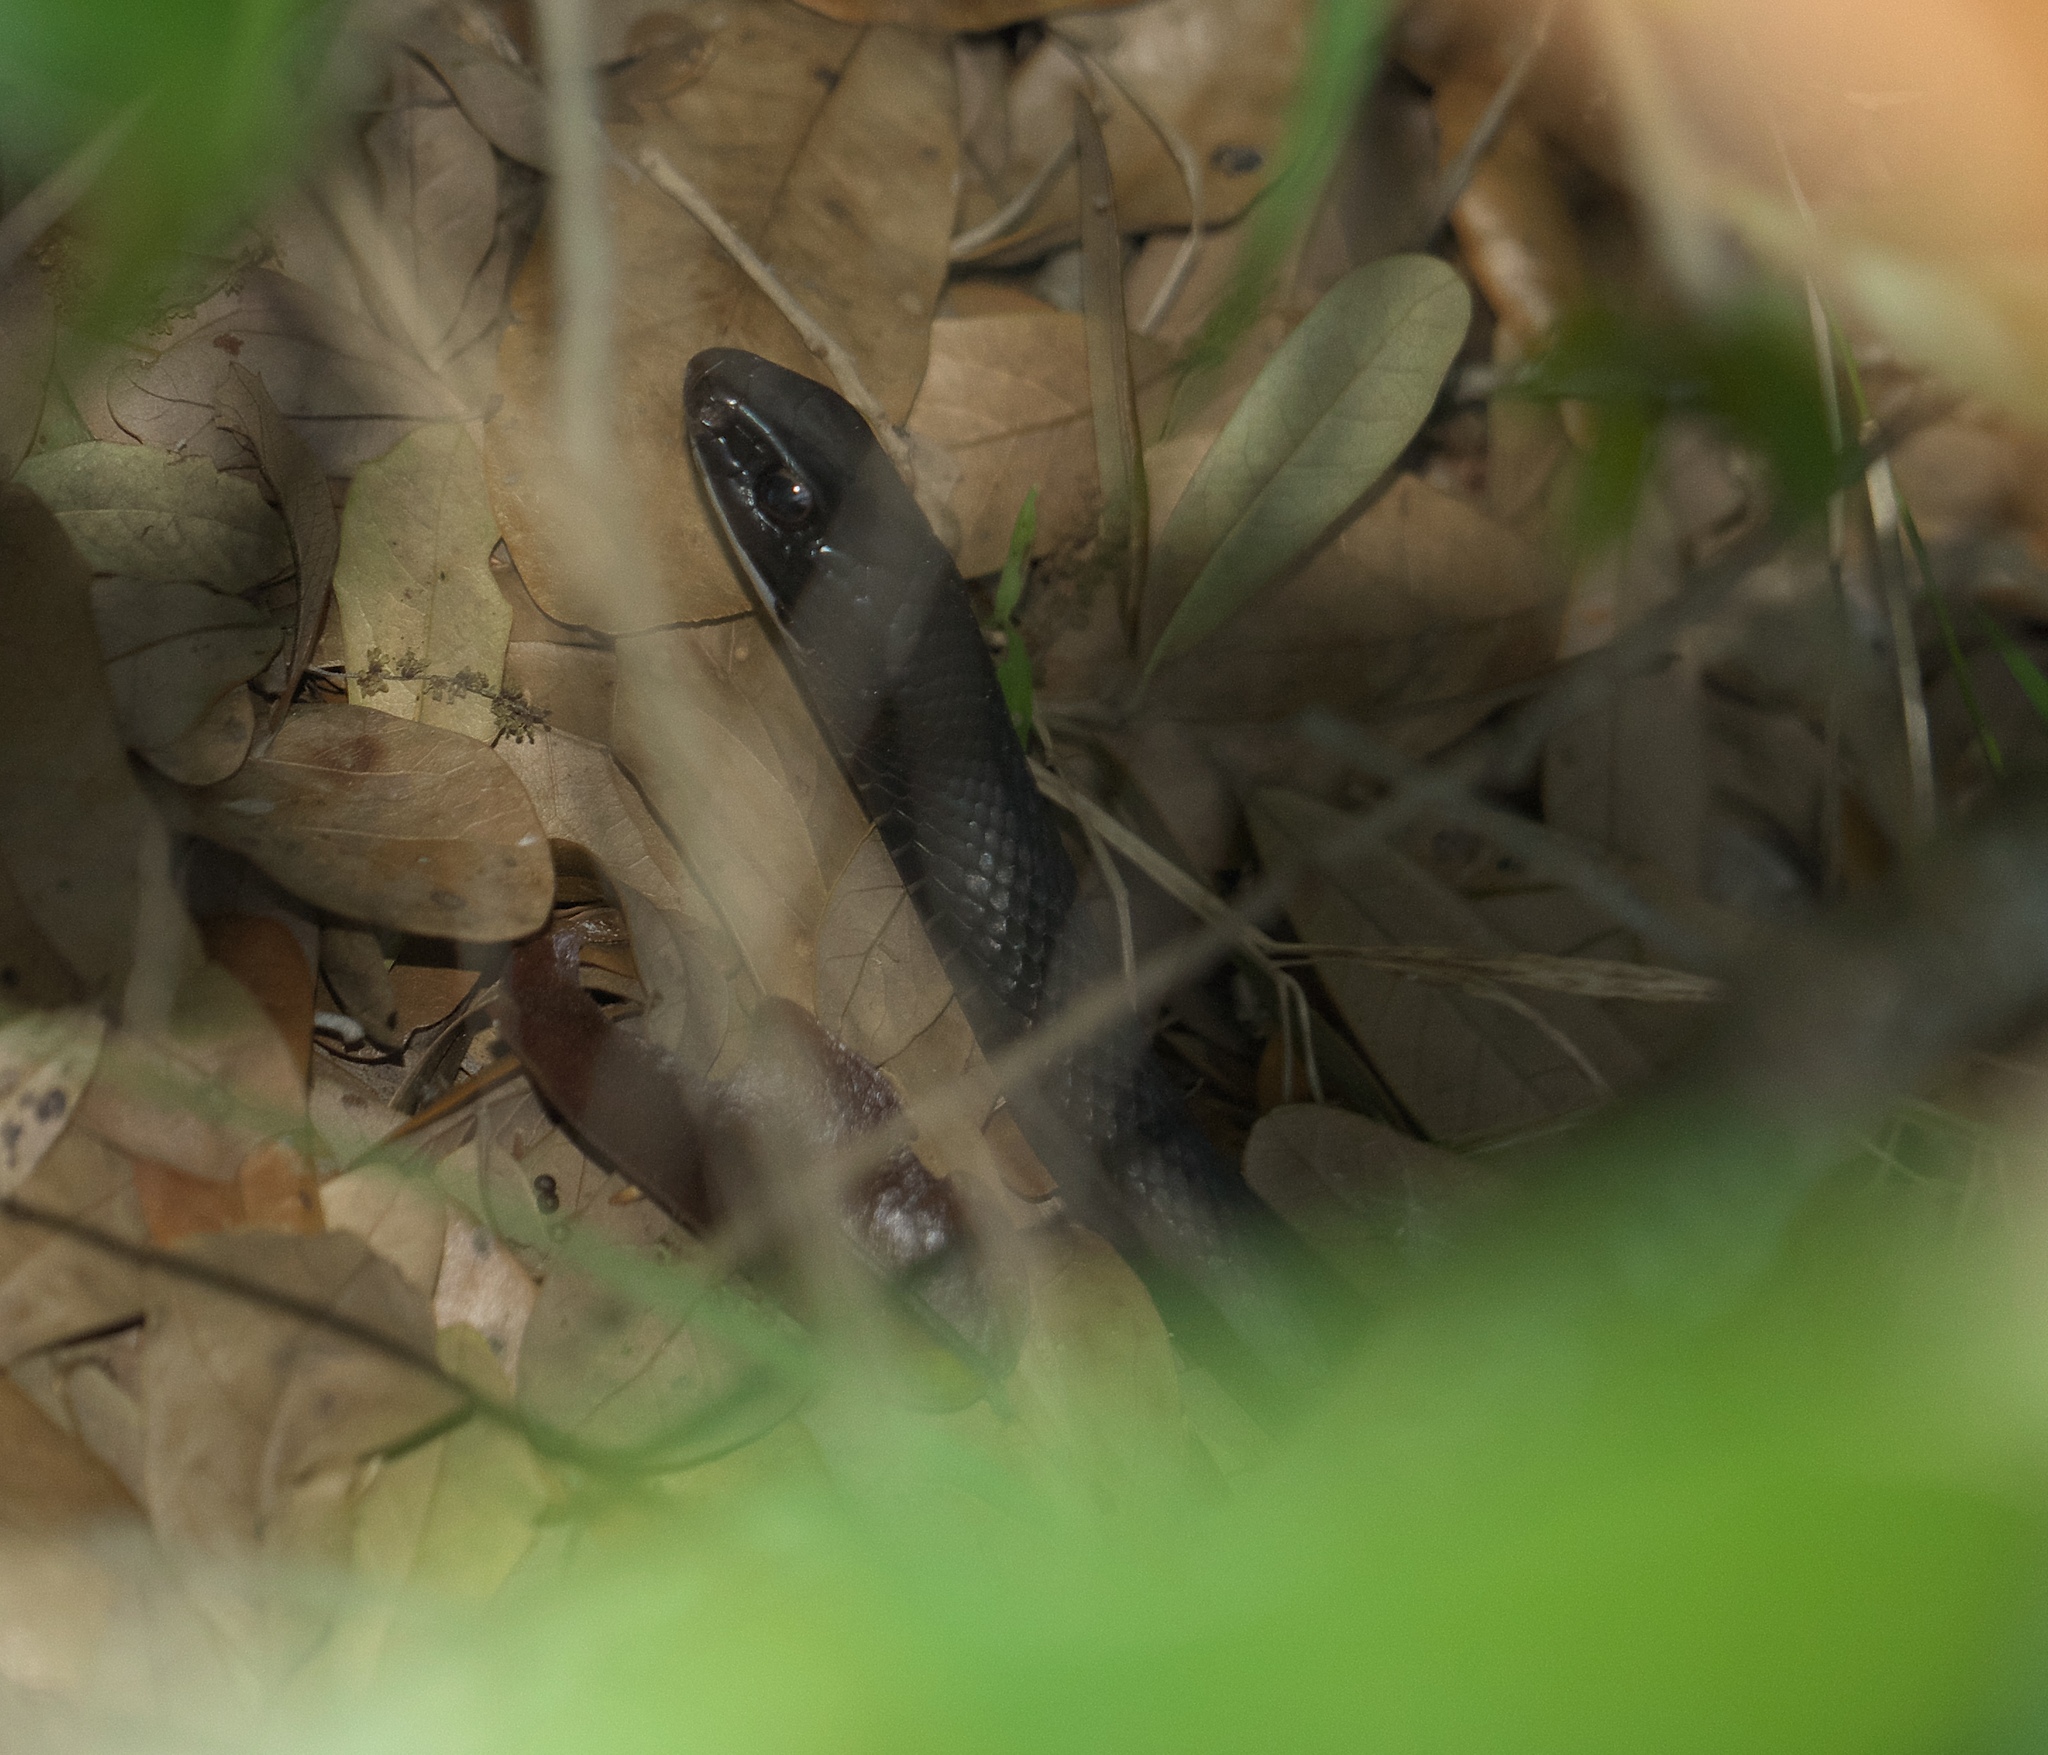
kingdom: Animalia
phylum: Chordata
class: Squamata
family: Colubridae
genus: Coluber
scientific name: Coluber constrictor
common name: Eastern racer
